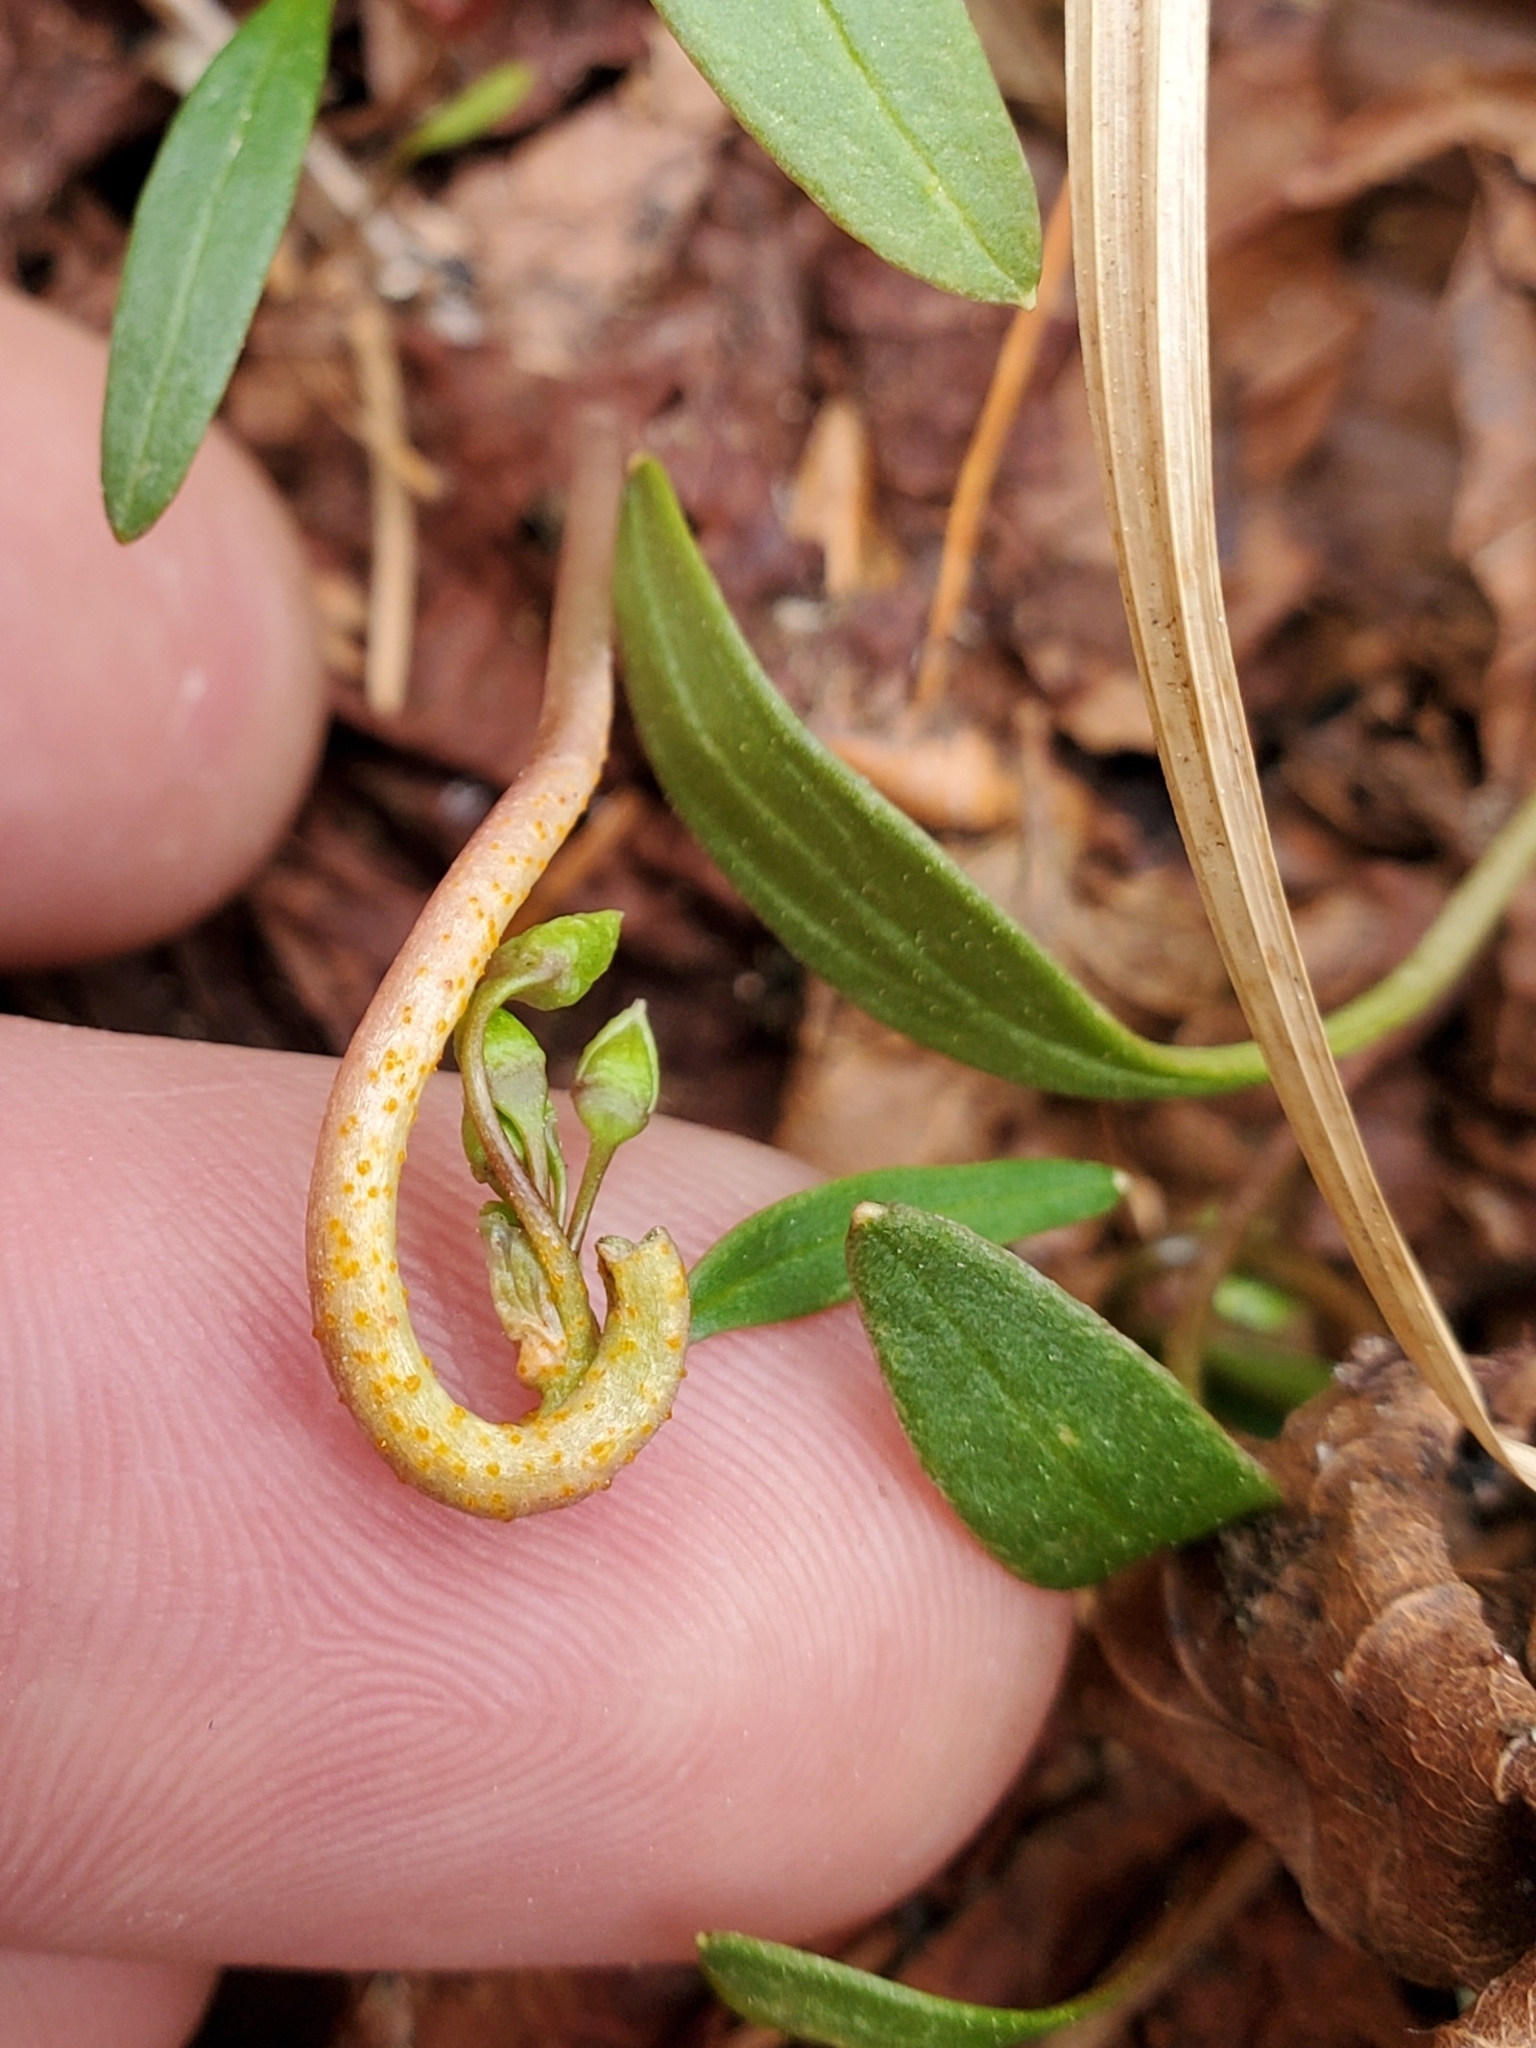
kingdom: Fungi
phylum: Basidiomycota
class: Pucciniomycetes
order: Pucciniales
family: Pucciniaceae
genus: Puccinia
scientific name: Puccinia mariae-wilsoniae
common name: Spring beauty rust
